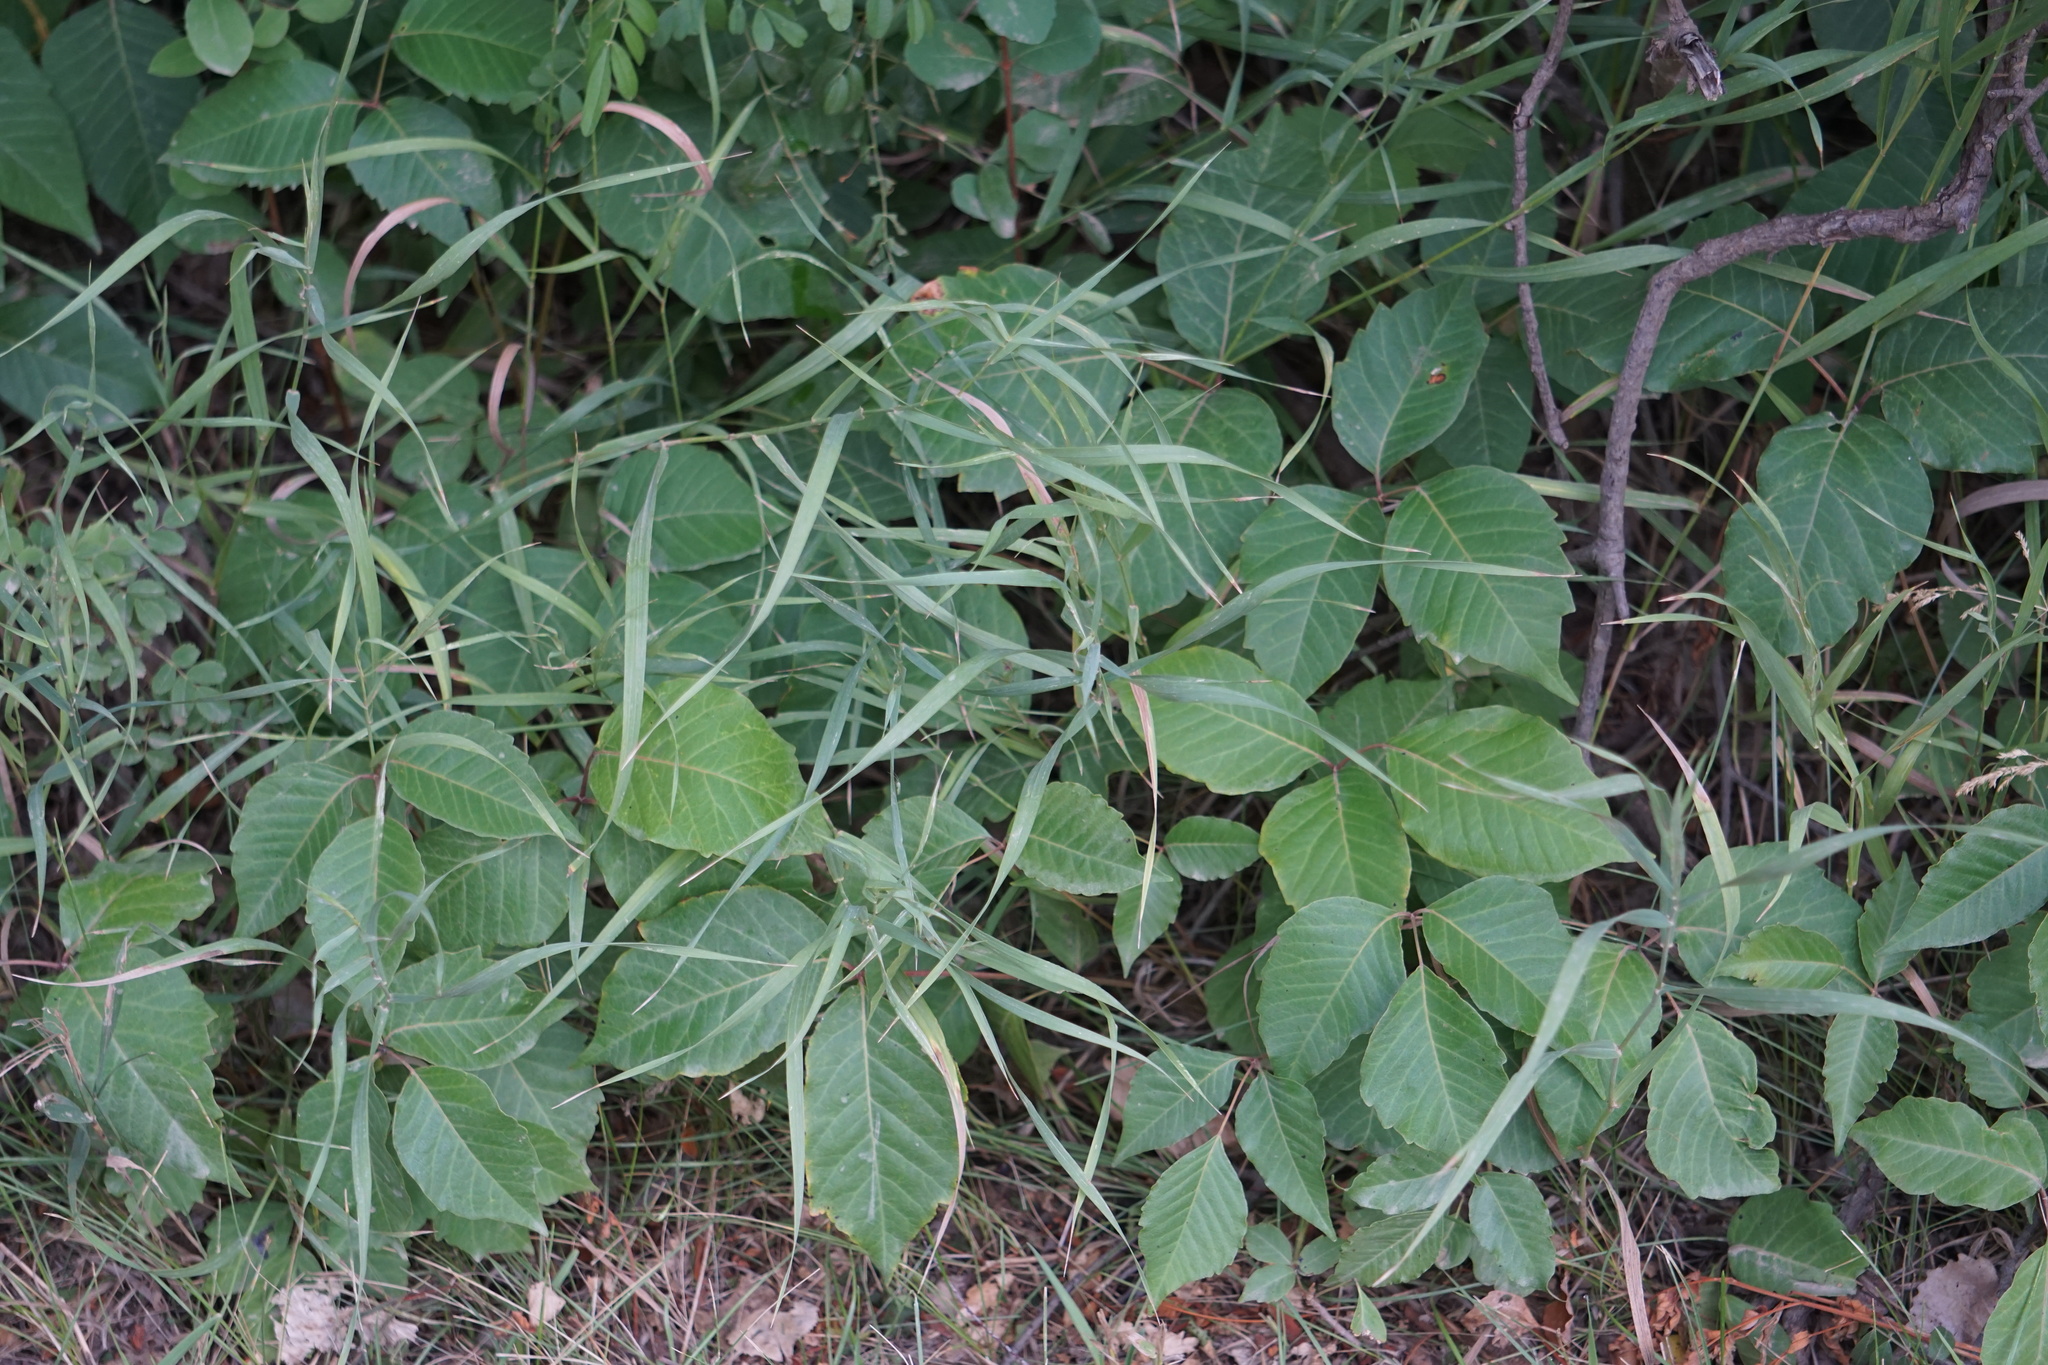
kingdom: Plantae
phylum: Tracheophyta
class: Magnoliopsida
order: Sapindales
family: Anacardiaceae
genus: Toxicodendron
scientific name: Toxicodendron rydbergii
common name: Rydberg's poison-ivy
